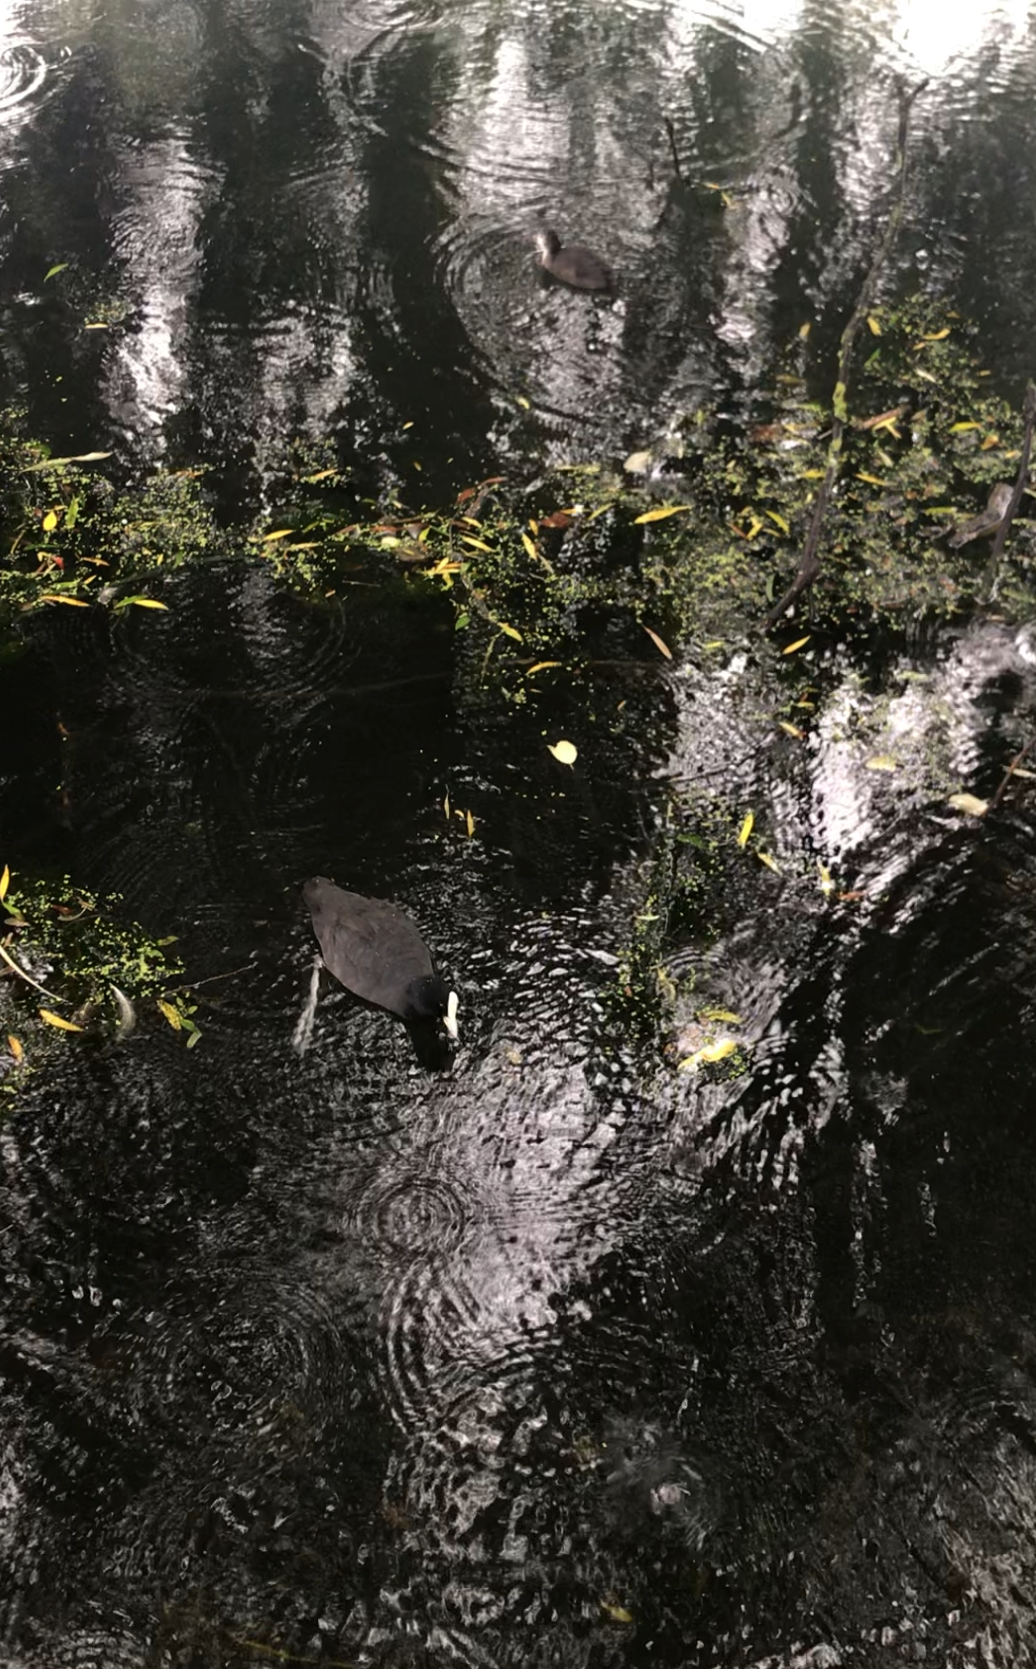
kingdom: Animalia
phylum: Chordata
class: Aves
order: Gruiformes
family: Rallidae
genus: Fulica
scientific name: Fulica atra
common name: Eurasian coot
